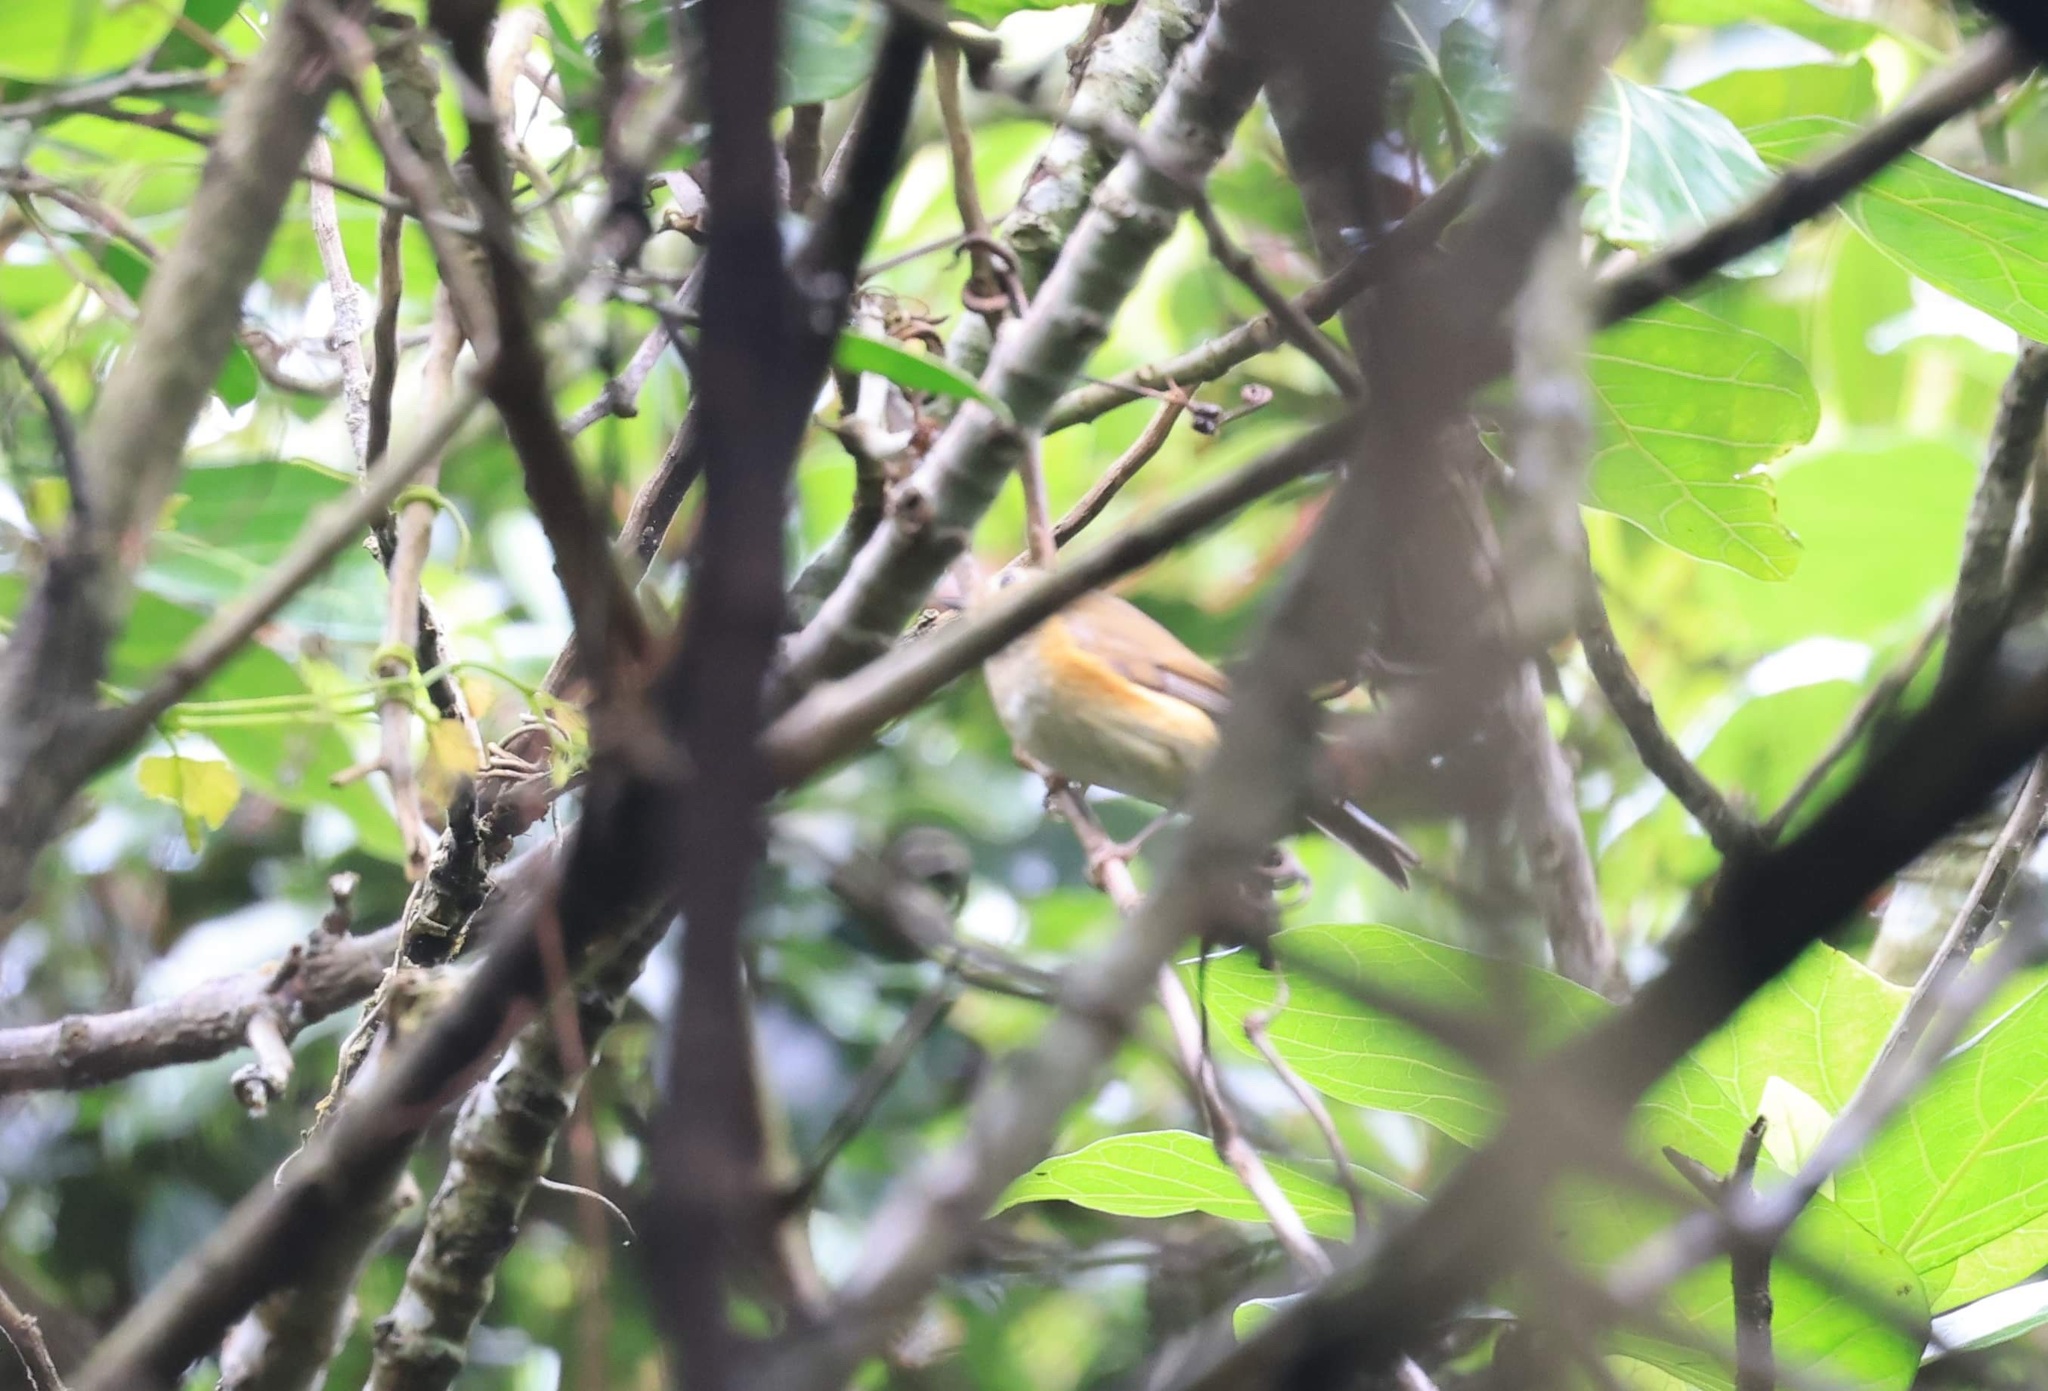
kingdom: Animalia
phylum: Chordata
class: Aves
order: Passeriformes
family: Muscicapidae
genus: Tarsiger
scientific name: Tarsiger cyanurus
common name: Red-flanked bluetail
